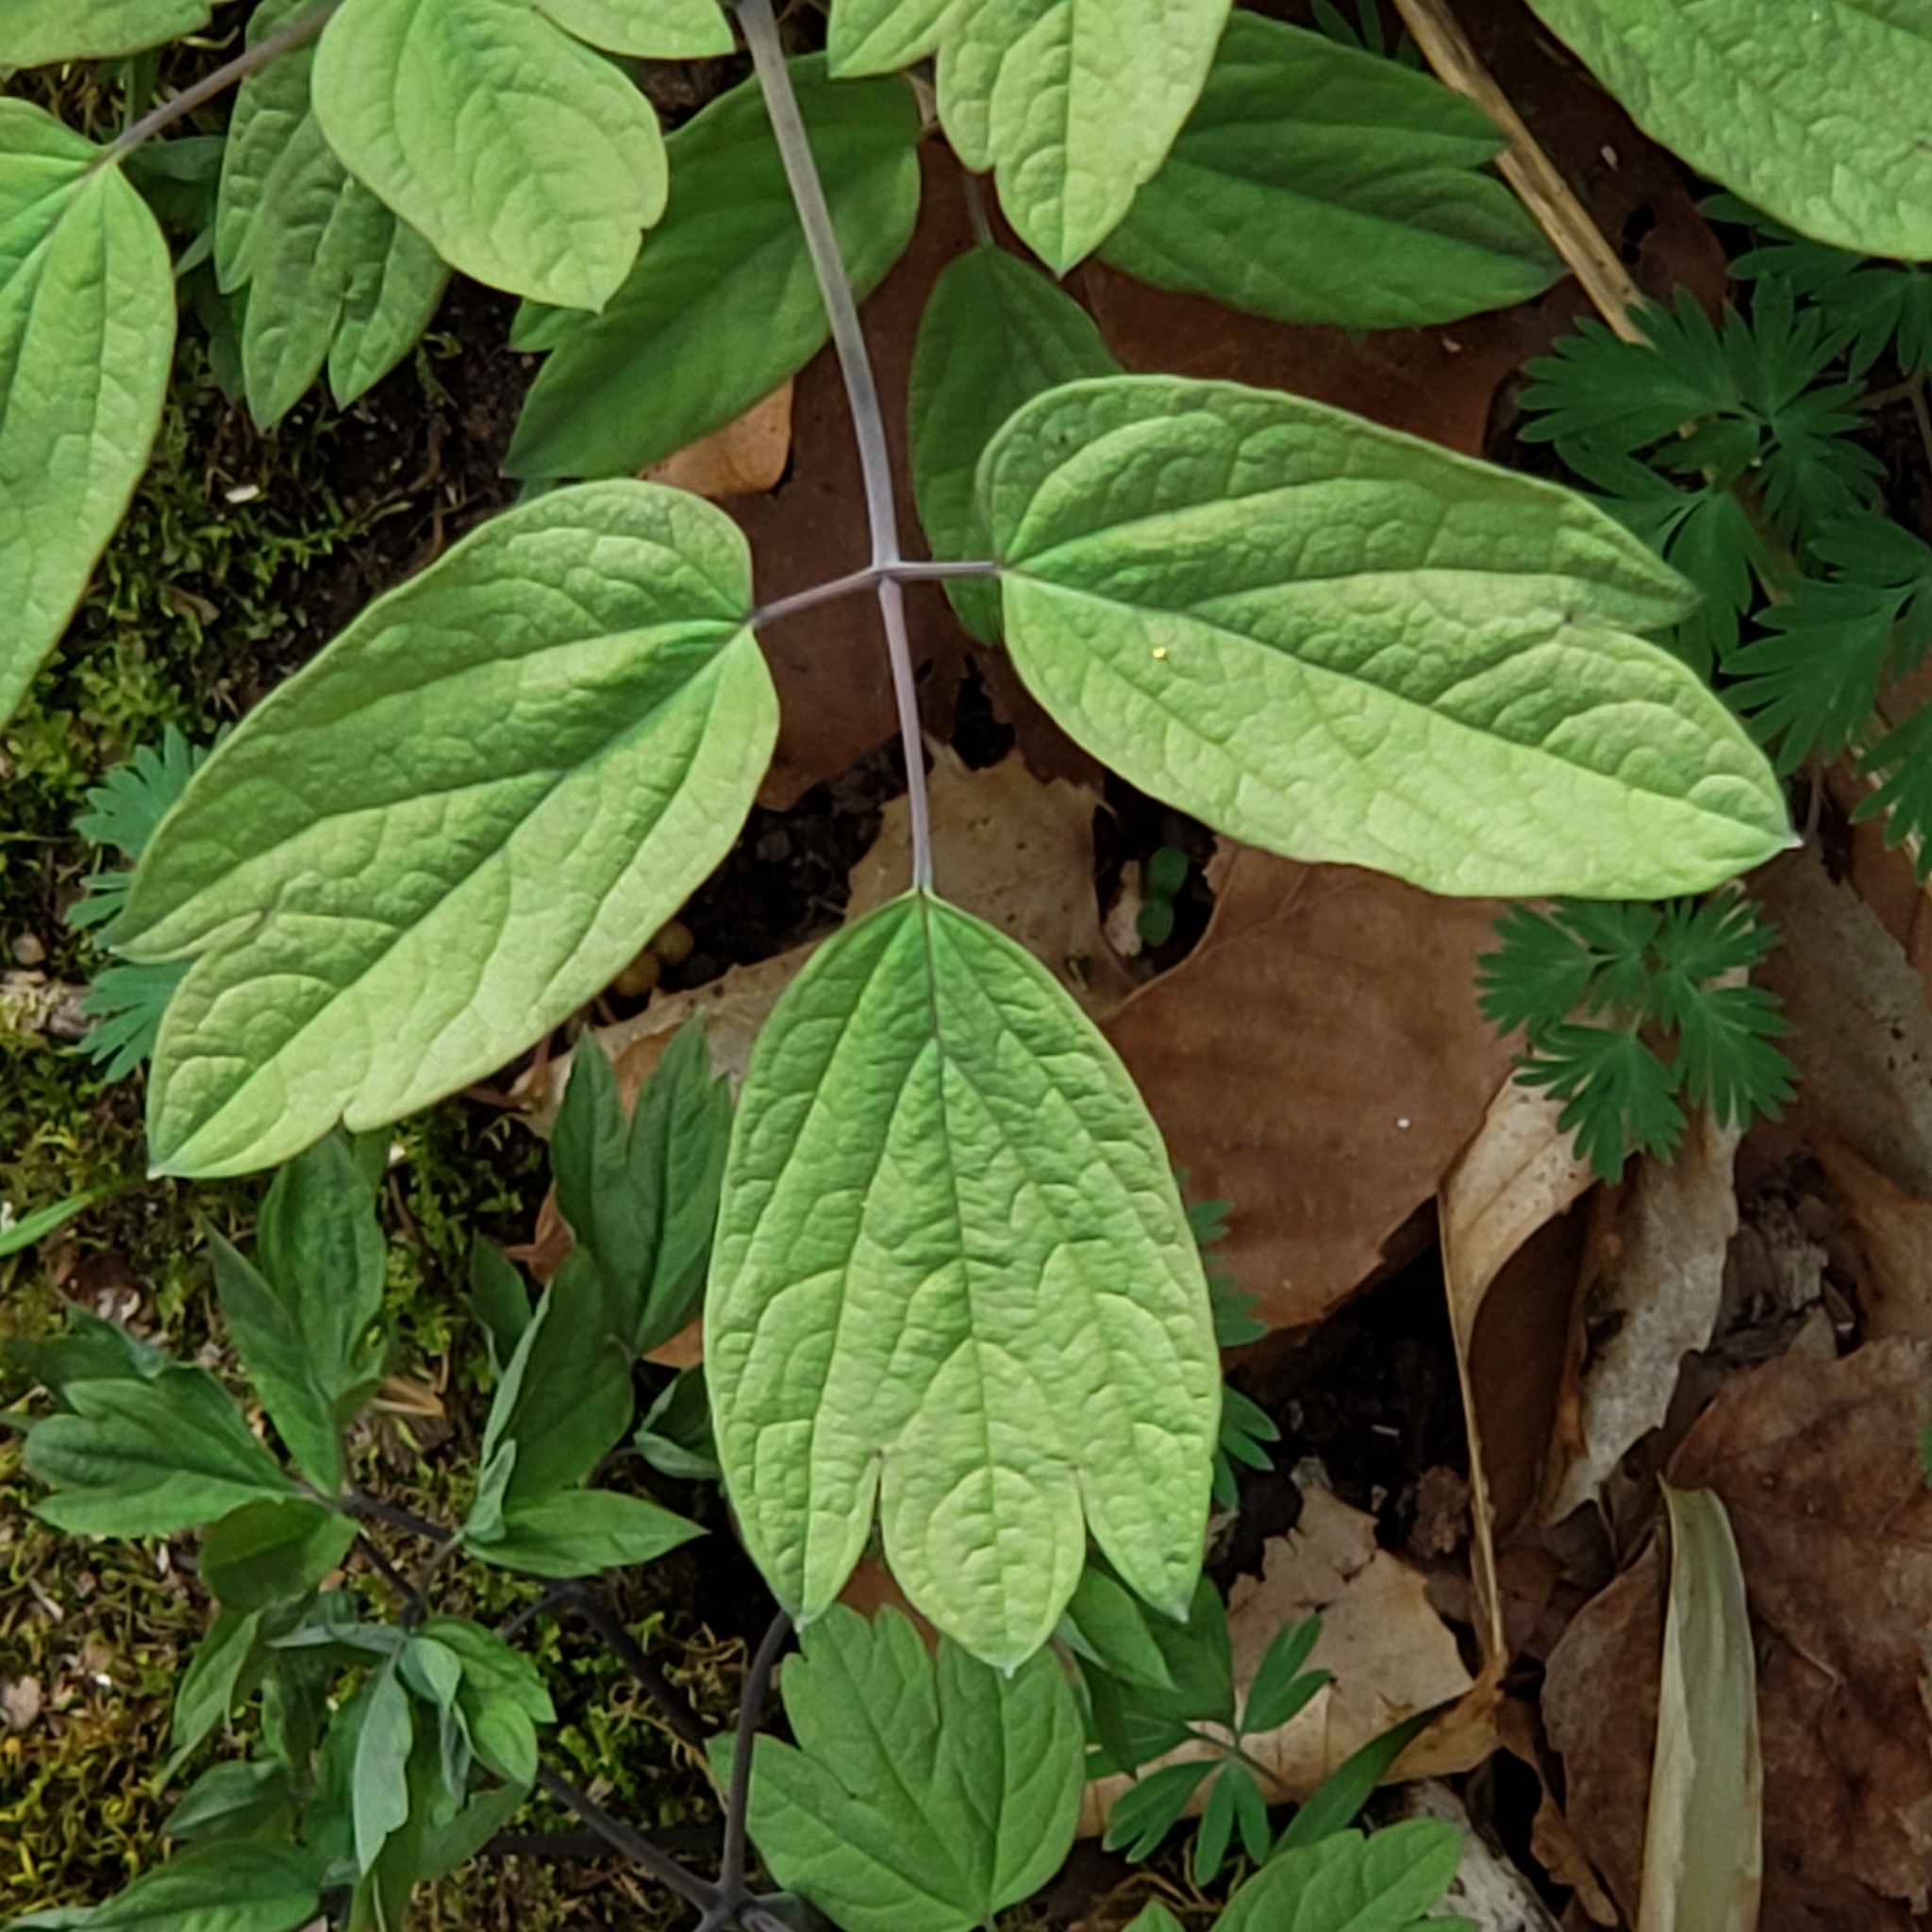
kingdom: Plantae
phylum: Tracheophyta
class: Magnoliopsida
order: Ranunculales
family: Berberidaceae
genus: Caulophyllum
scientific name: Caulophyllum giganteum
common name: Blue cohosh
